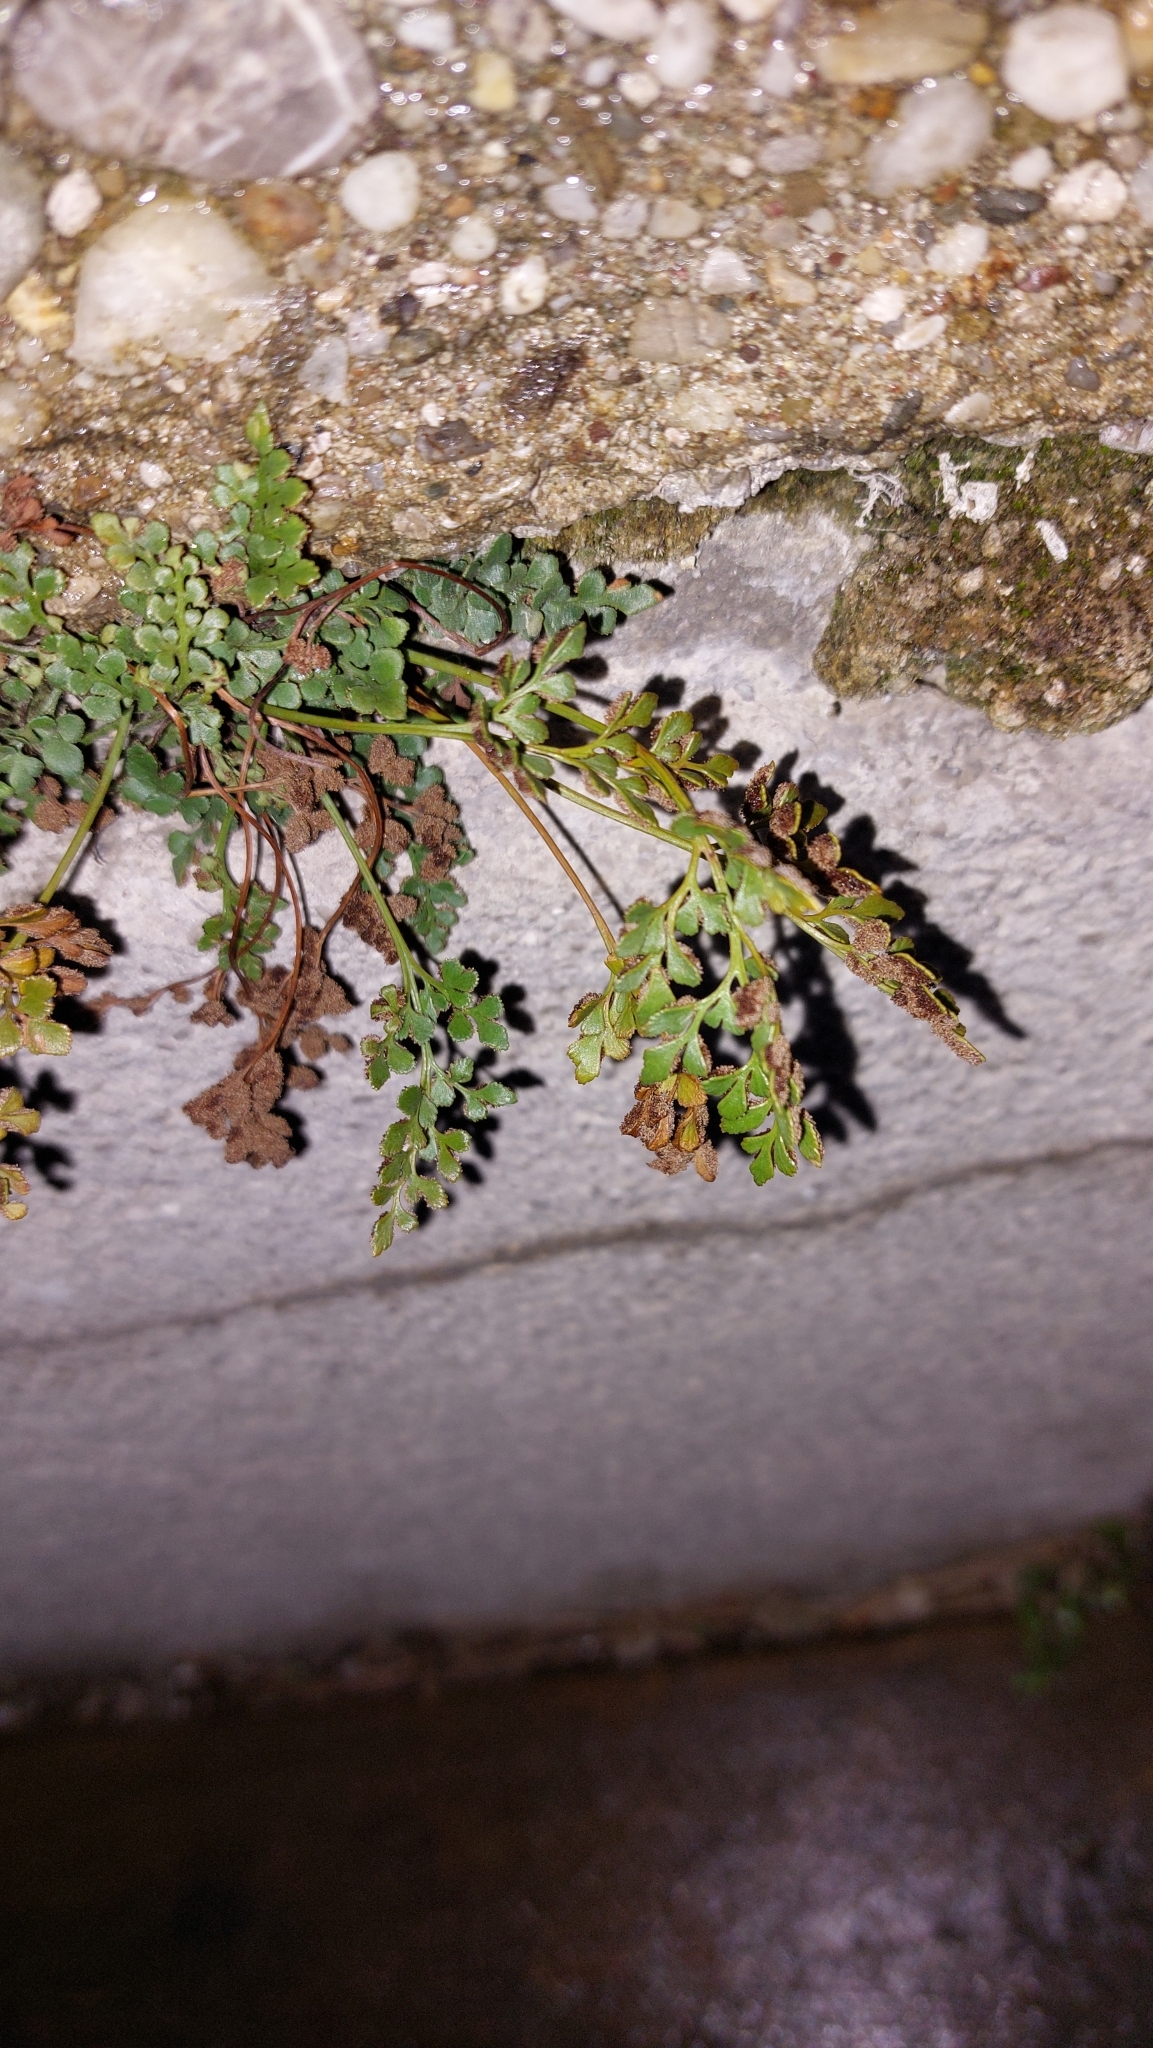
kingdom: Plantae
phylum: Tracheophyta
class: Polypodiopsida
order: Polypodiales
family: Aspleniaceae
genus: Asplenium
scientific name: Asplenium ruta-muraria
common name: Wall-rue
